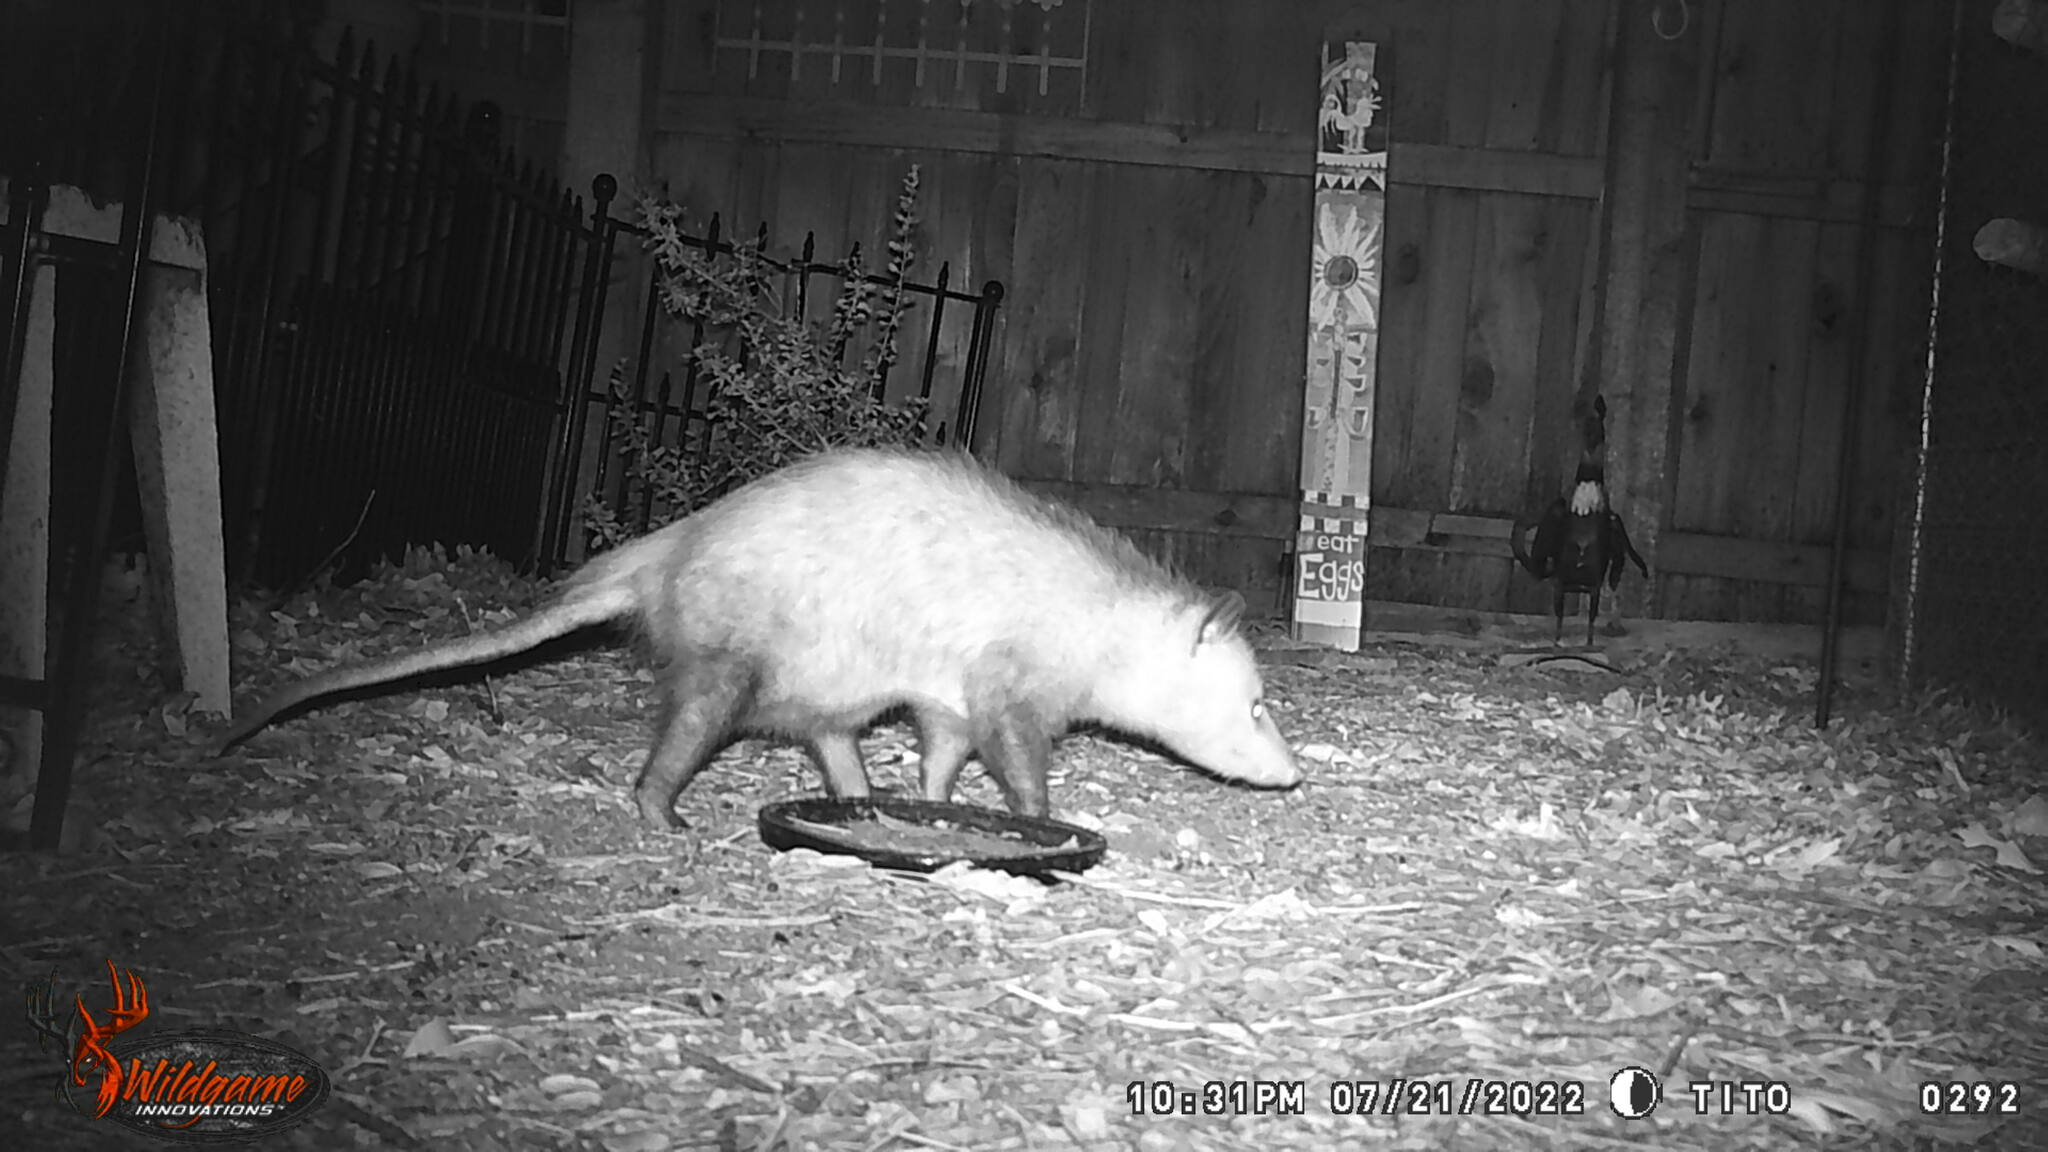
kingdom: Animalia
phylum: Chordata
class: Mammalia
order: Didelphimorphia
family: Didelphidae
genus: Didelphis
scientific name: Didelphis virginiana
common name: Virginia opossum
